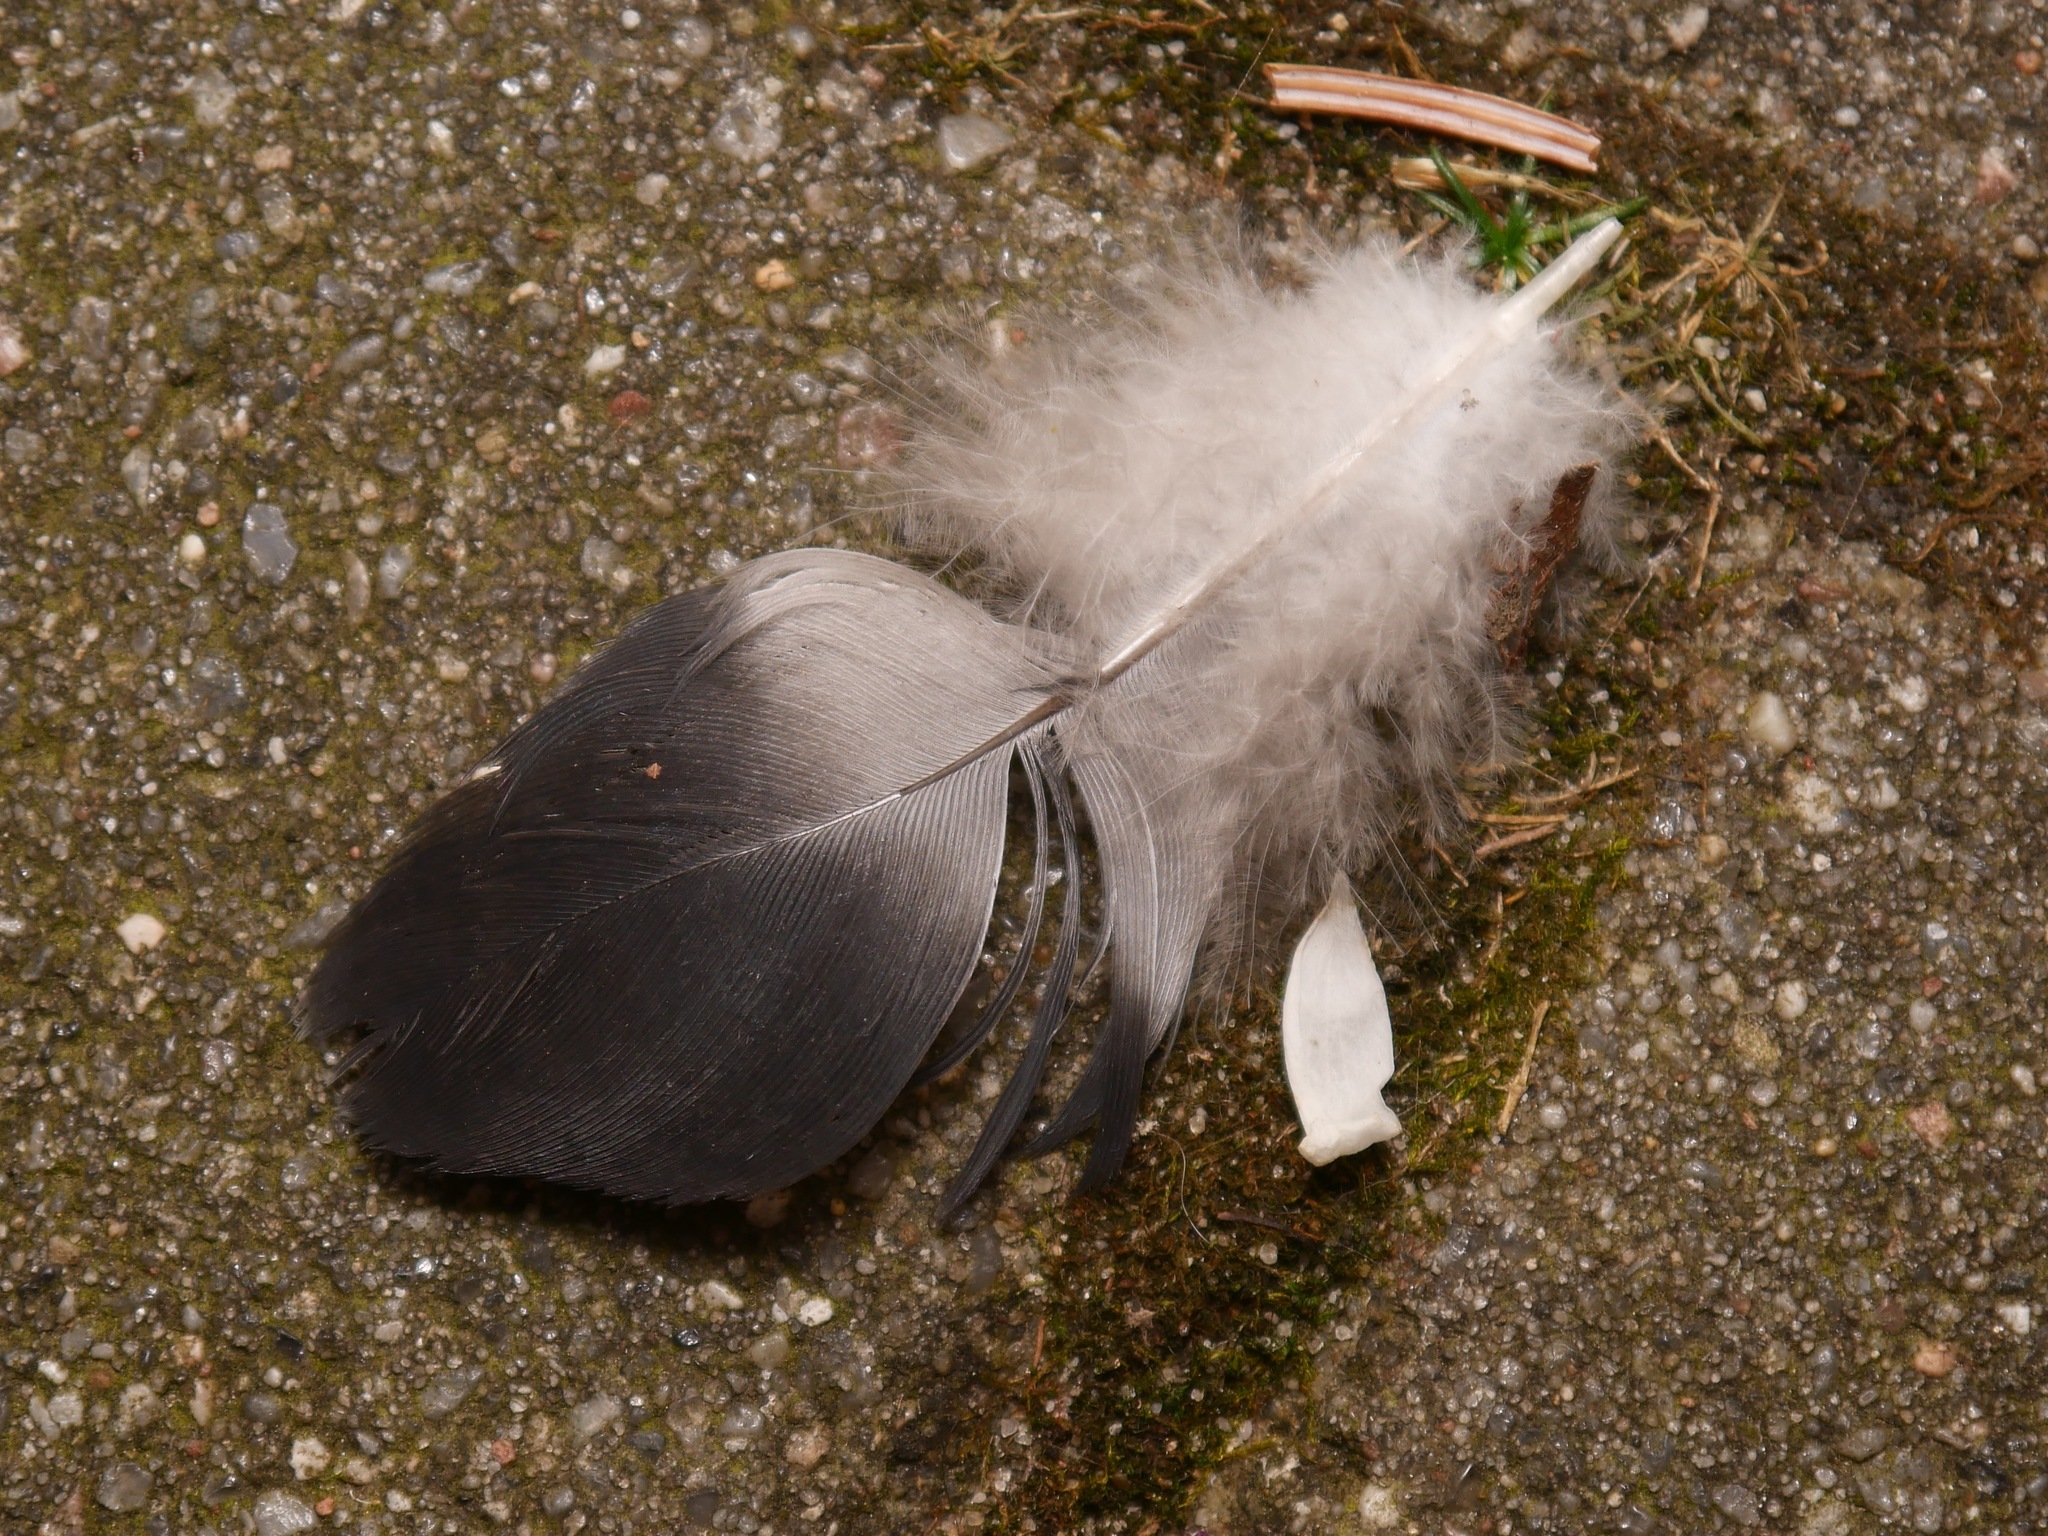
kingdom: Animalia
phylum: Chordata
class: Aves
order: Columbiformes
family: Columbidae
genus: Columba
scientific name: Columba livia
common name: Rock pigeon
